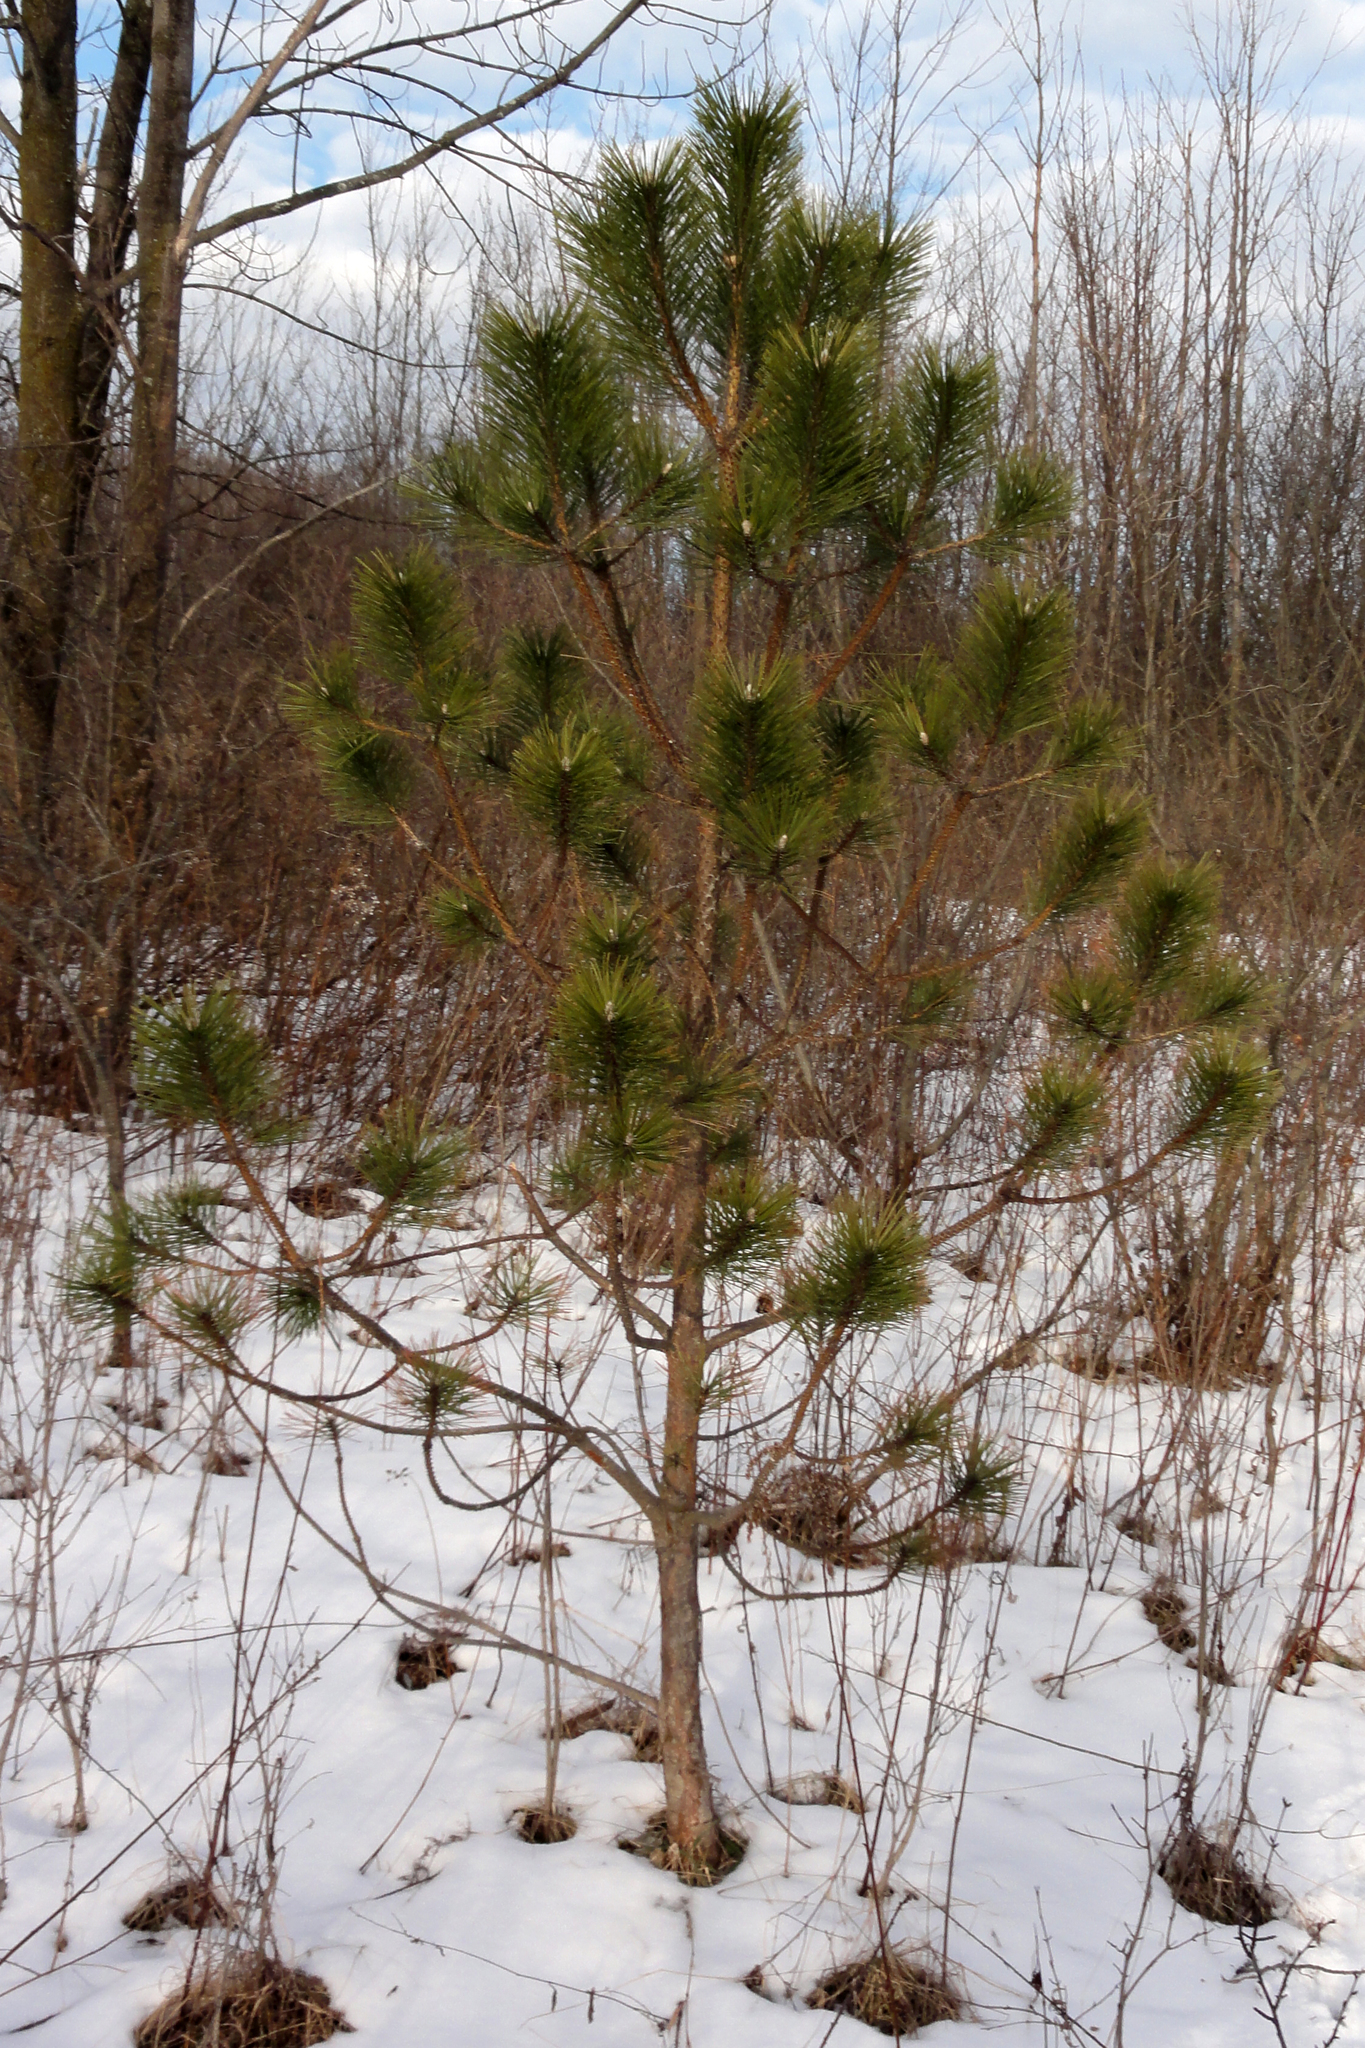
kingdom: Plantae
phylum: Tracheophyta
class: Pinopsida
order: Pinales
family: Pinaceae
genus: Pinus
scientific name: Pinus resinosa
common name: Norway pine
